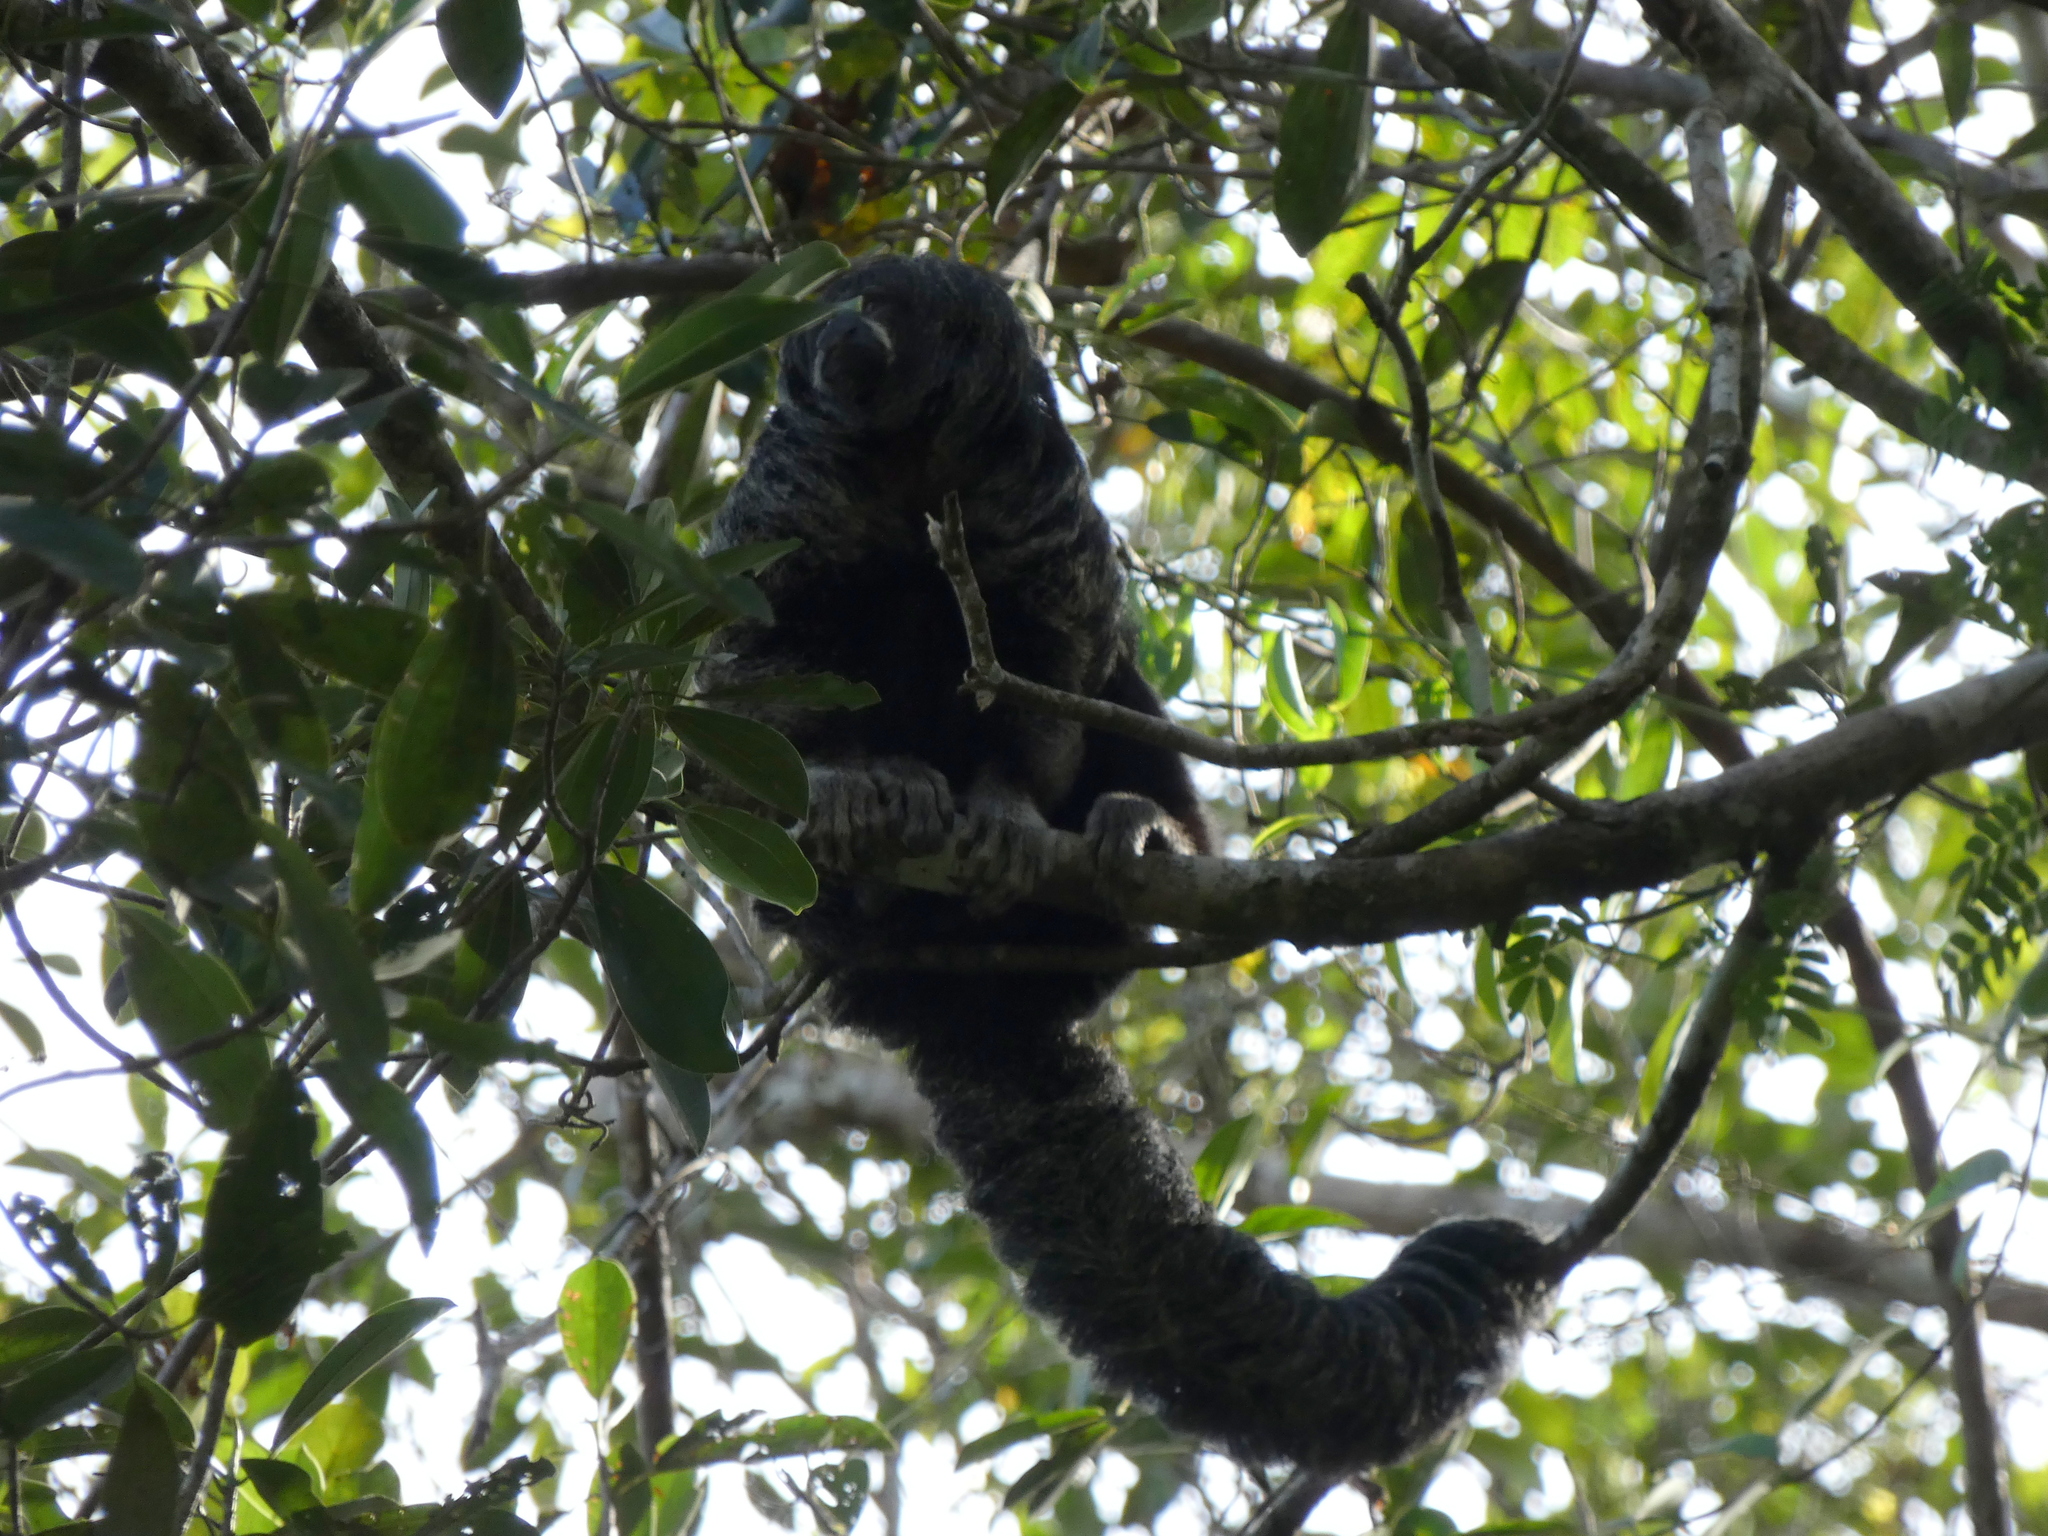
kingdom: Animalia
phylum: Chordata
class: Mammalia
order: Primates
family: Pitheciidae
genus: Pithecia
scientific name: Pithecia milleri
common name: Miller's saki
